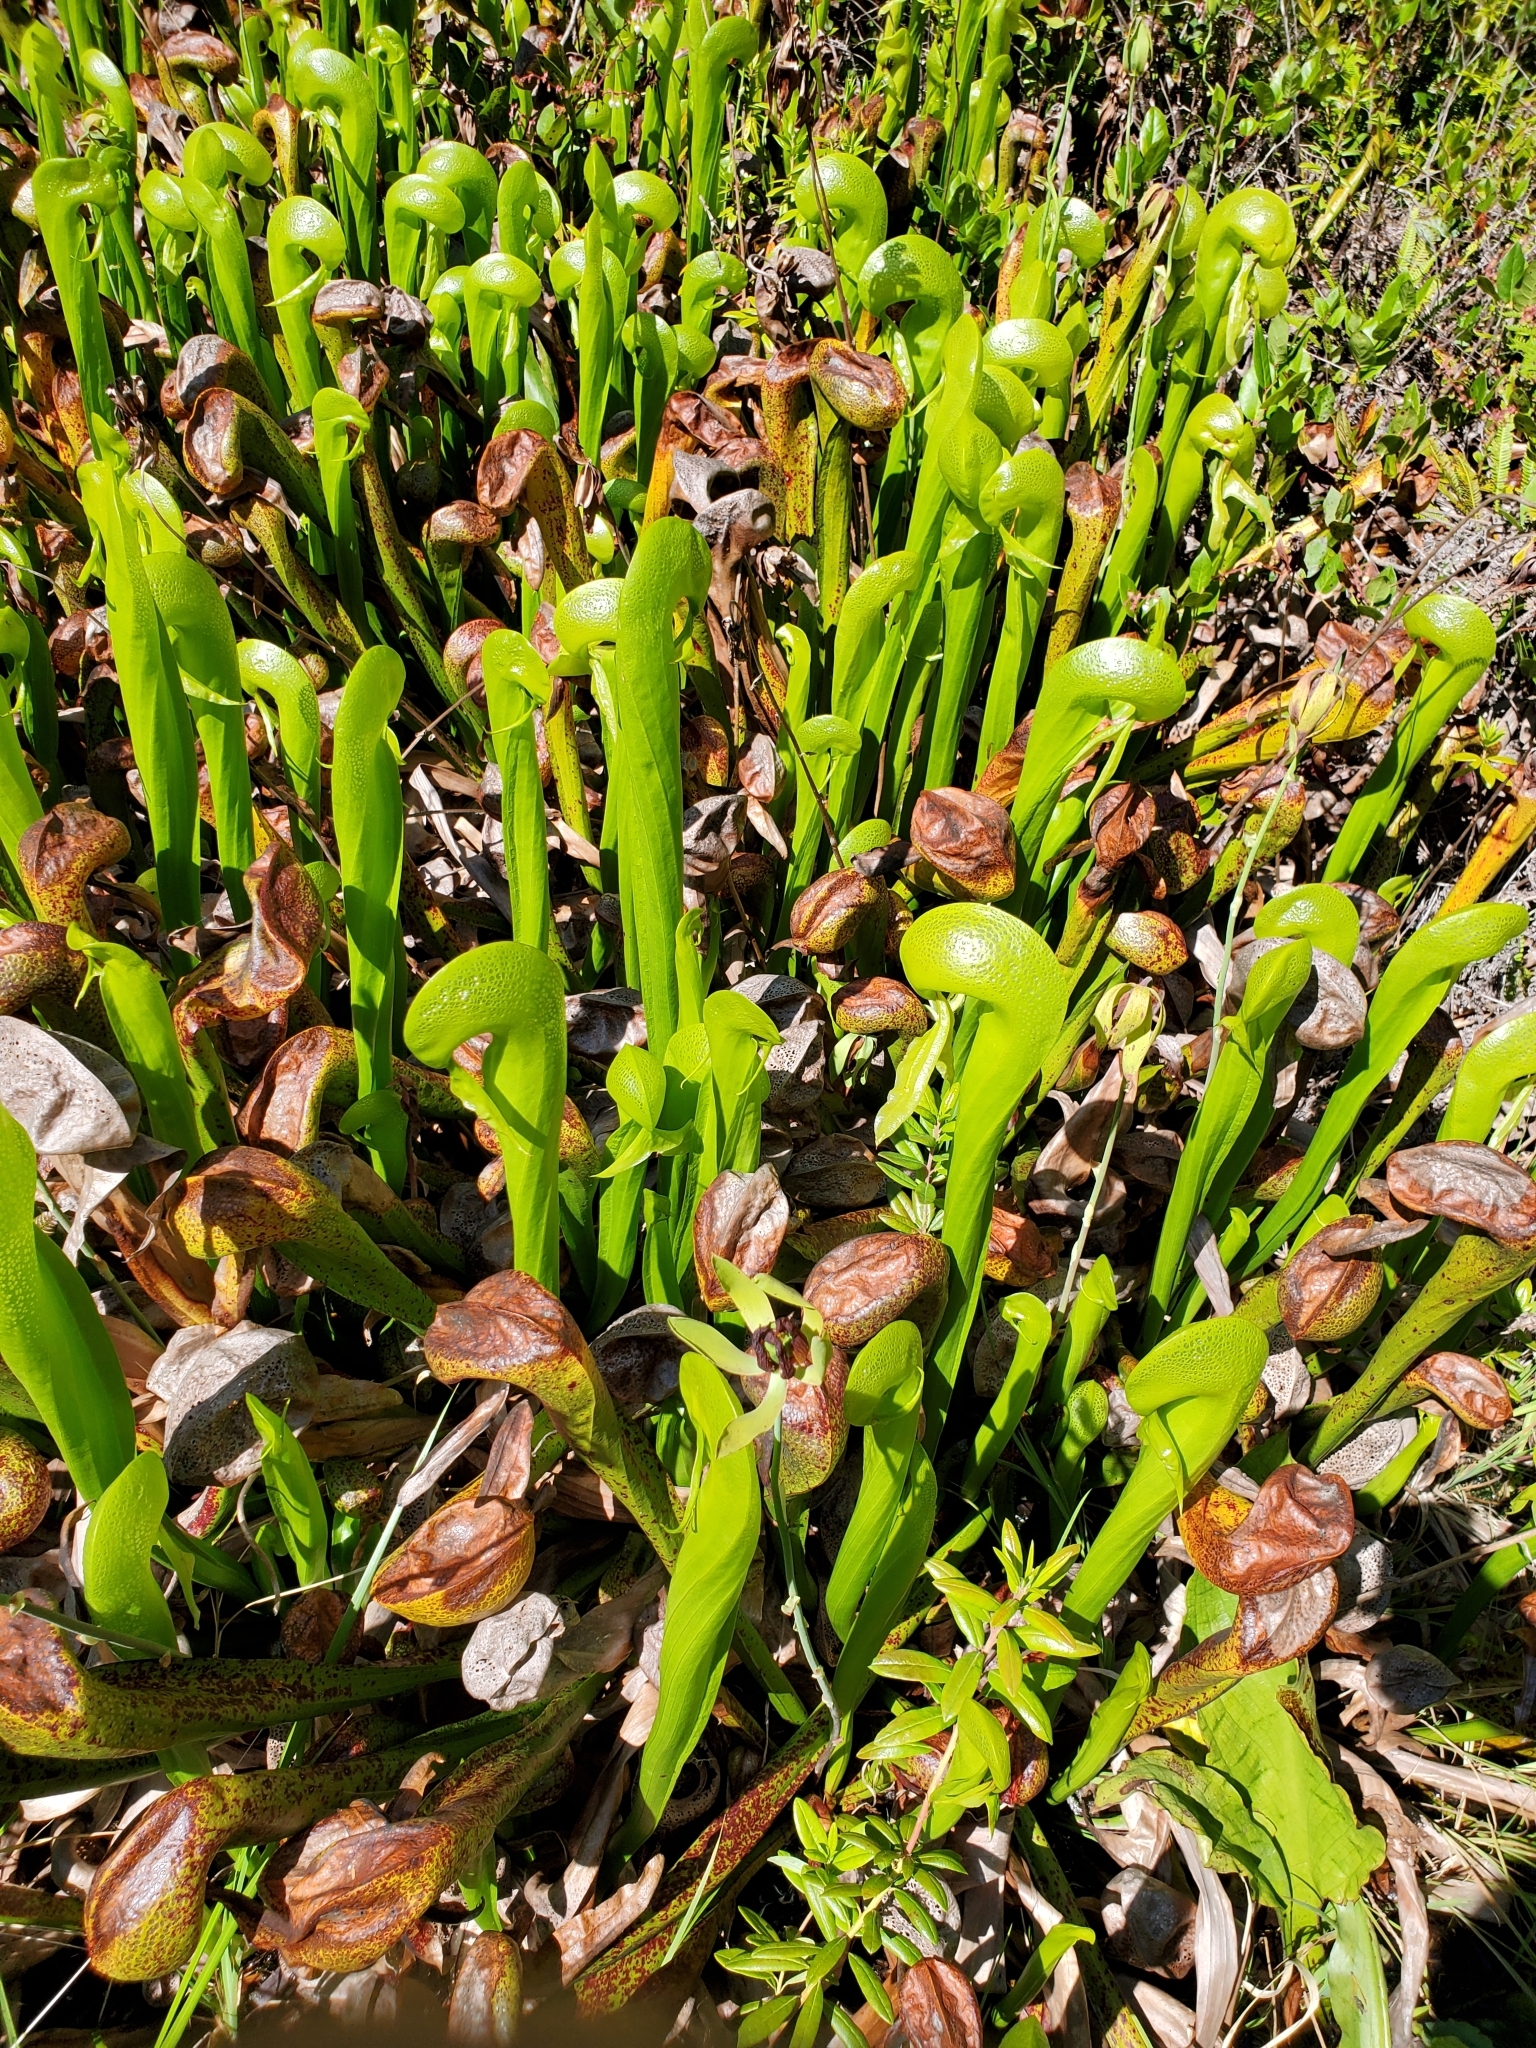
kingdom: Plantae
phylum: Tracheophyta
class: Magnoliopsida
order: Ericales
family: Sarraceniaceae
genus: Darlingtonia
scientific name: Darlingtonia californica
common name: California pitcher plant
